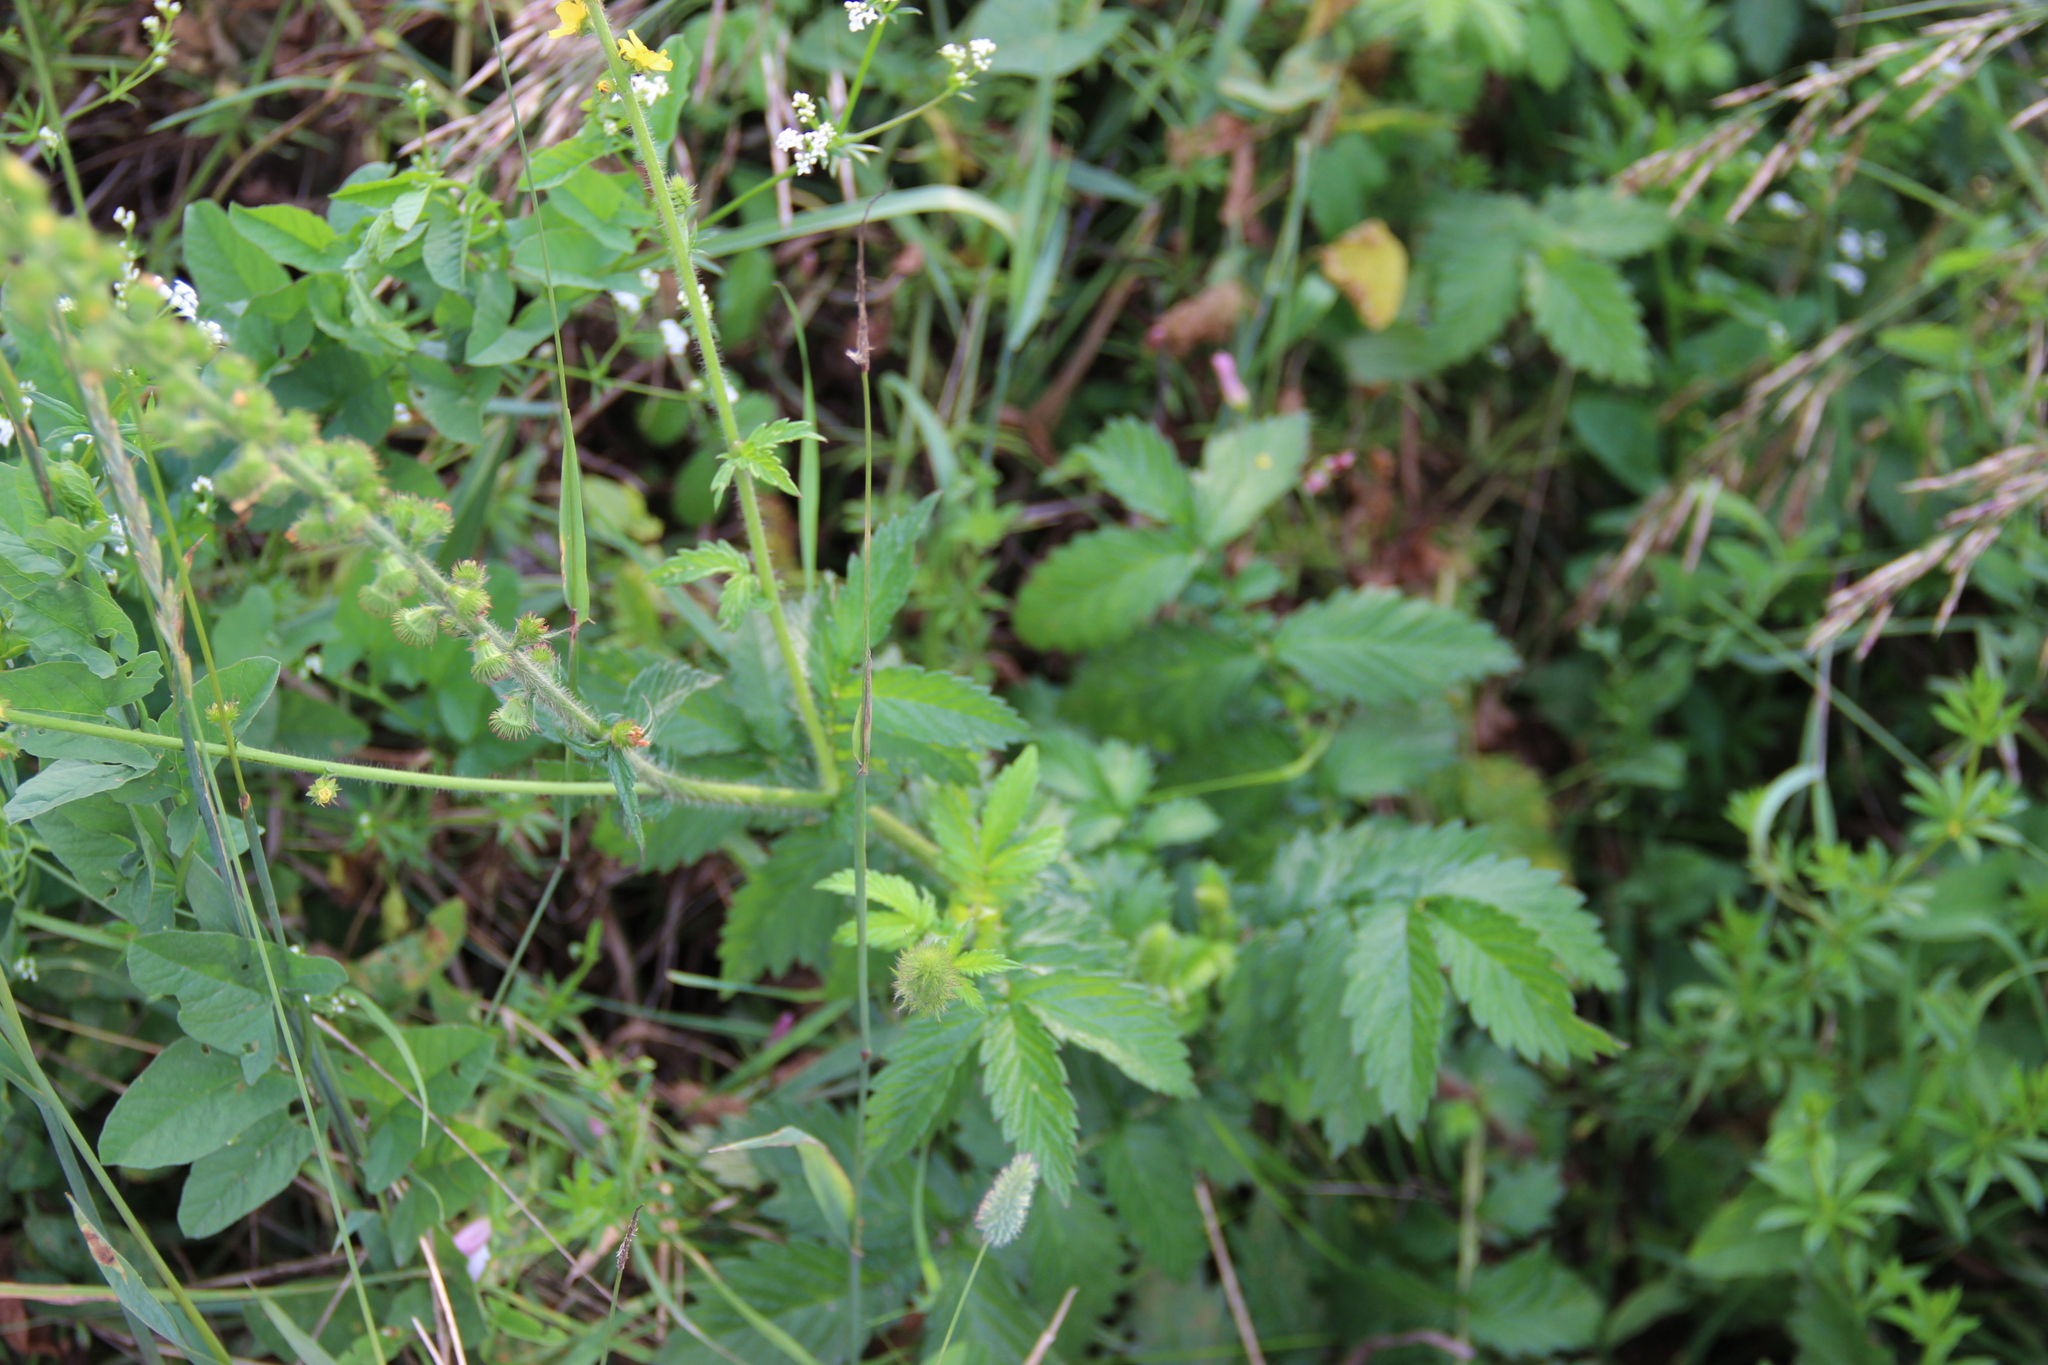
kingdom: Plantae
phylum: Tracheophyta
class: Magnoliopsida
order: Rosales
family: Rosaceae
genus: Agrimonia
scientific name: Agrimonia eupatoria
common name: Agrimony
